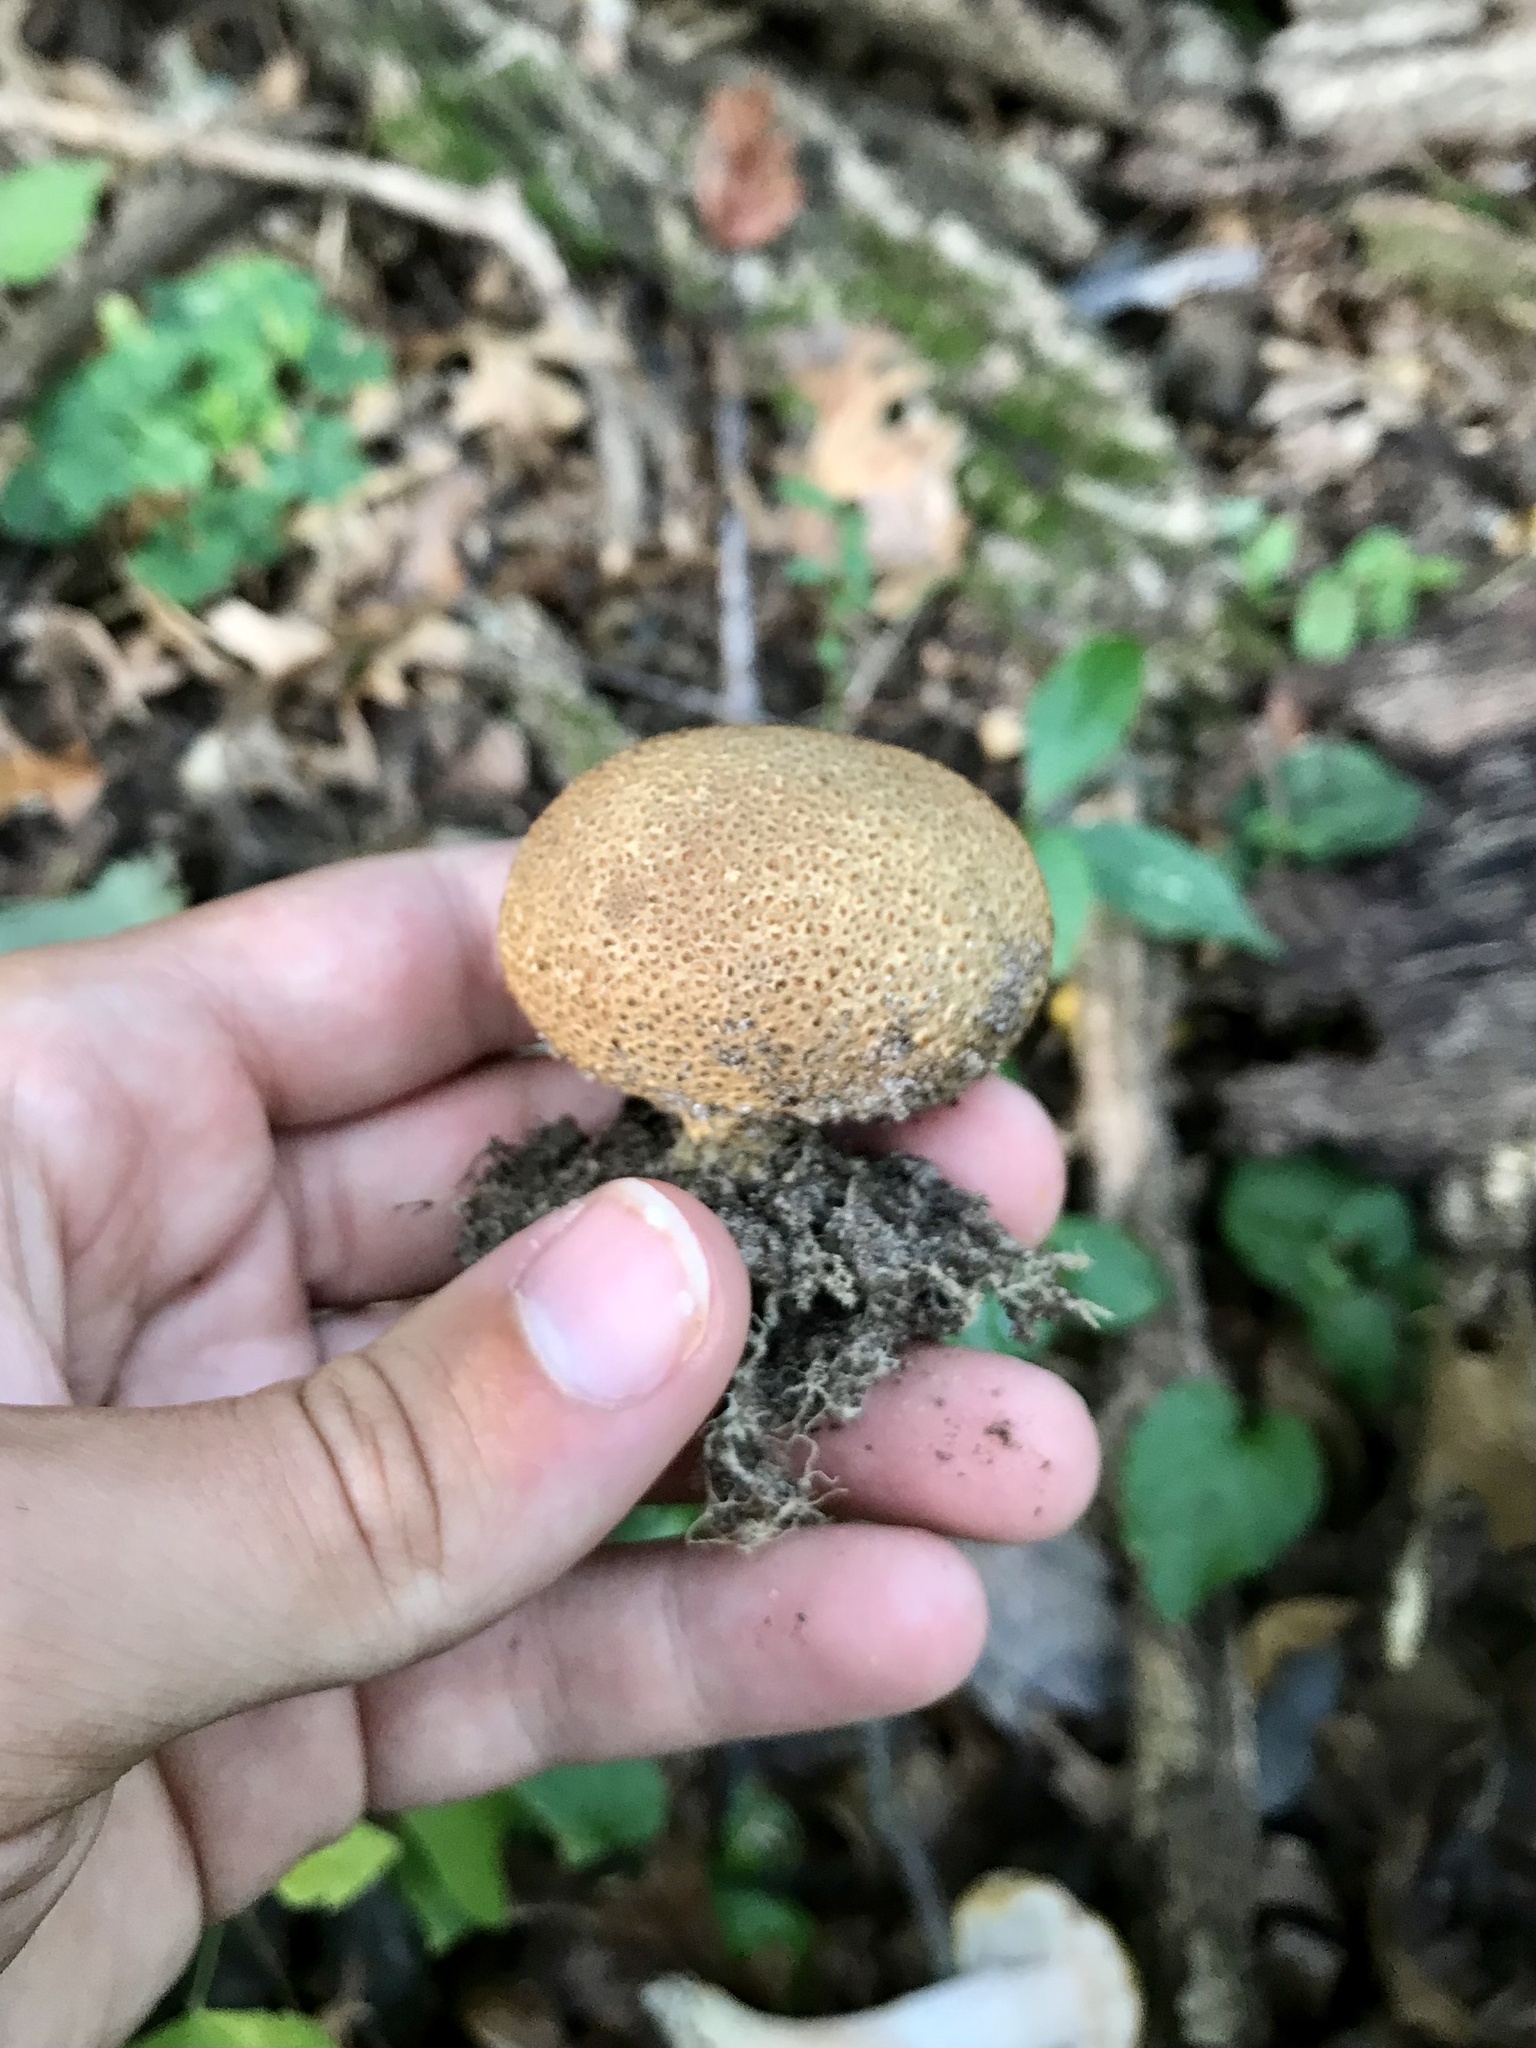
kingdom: Fungi
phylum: Basidiomycota
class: Agaricomycetes
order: Boletales
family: Sclerodermataceae
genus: Scleroderma
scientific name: Scleroderma citrinum
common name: Common earthball
